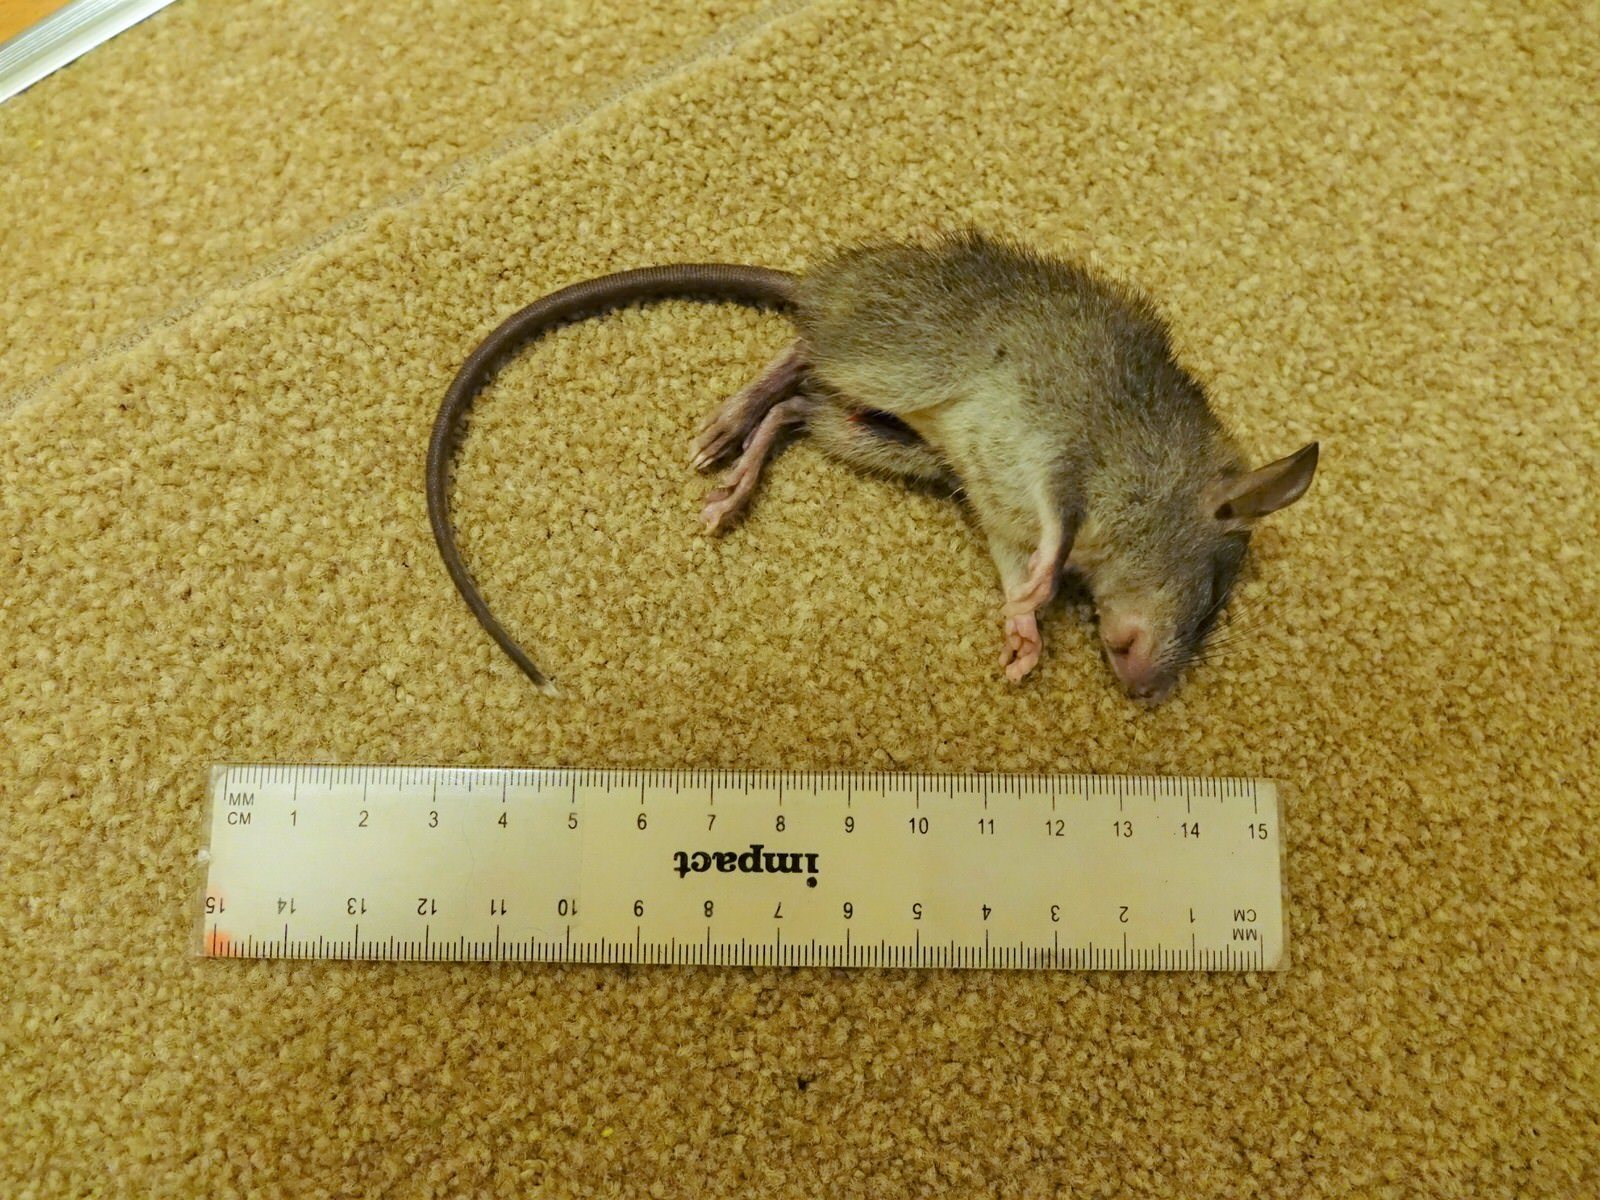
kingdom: Animalia
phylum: Chordata
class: Mammalia
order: Rodentia
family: Muridae
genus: Rattus
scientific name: Rattus rattus
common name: Black rat
